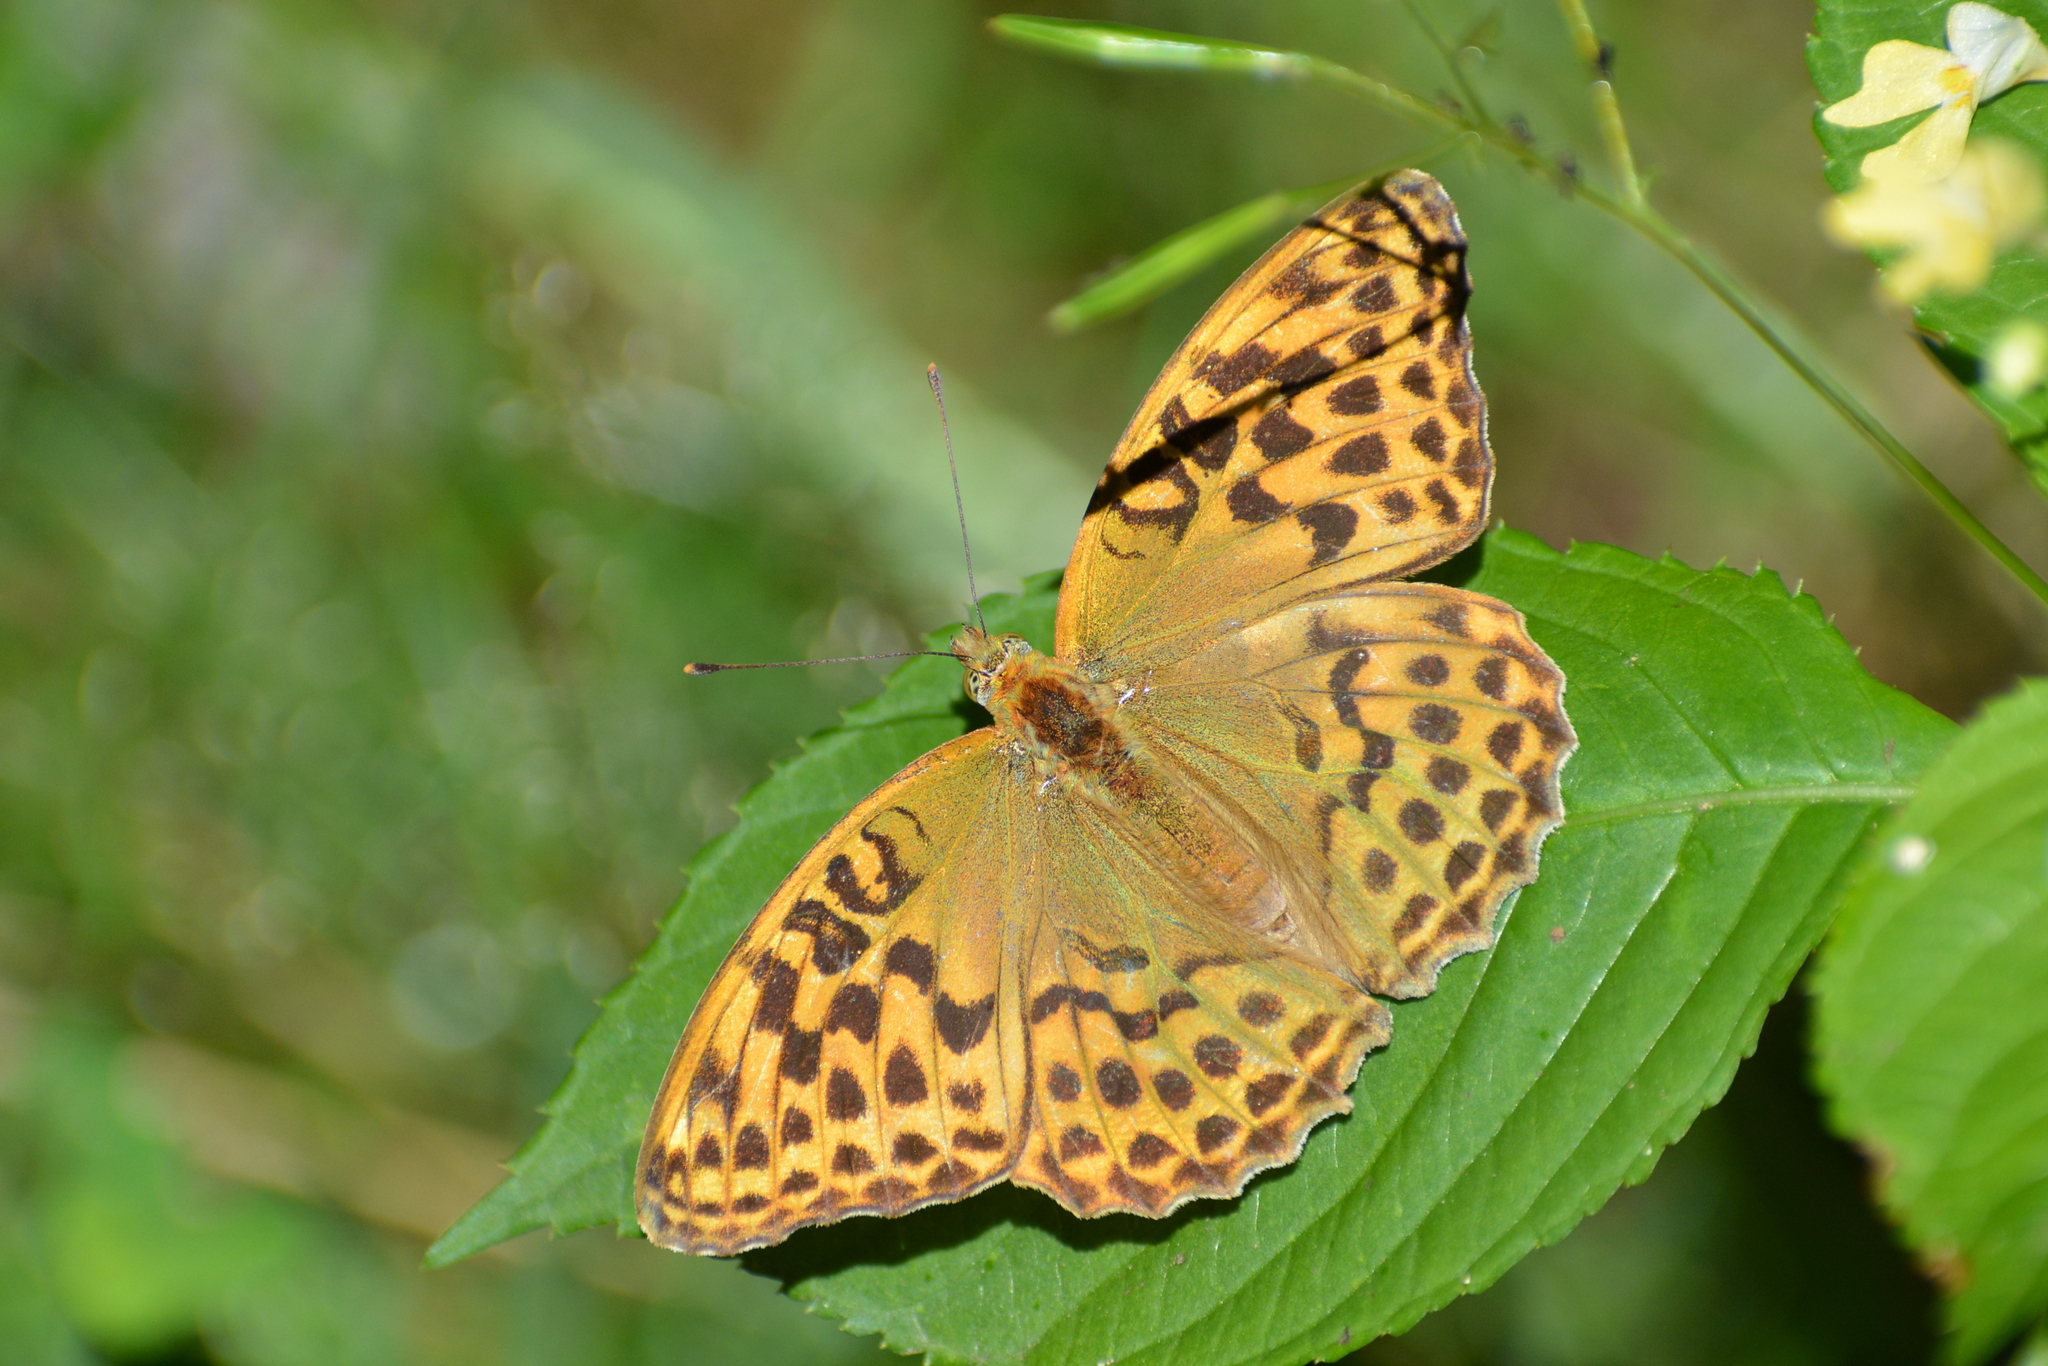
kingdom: Animalia
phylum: Arthropoda
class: Insecta
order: Lepidoptera
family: Nymphalidae
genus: Argynnis
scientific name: Argynnis paphia
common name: Silver-washed fritillary
